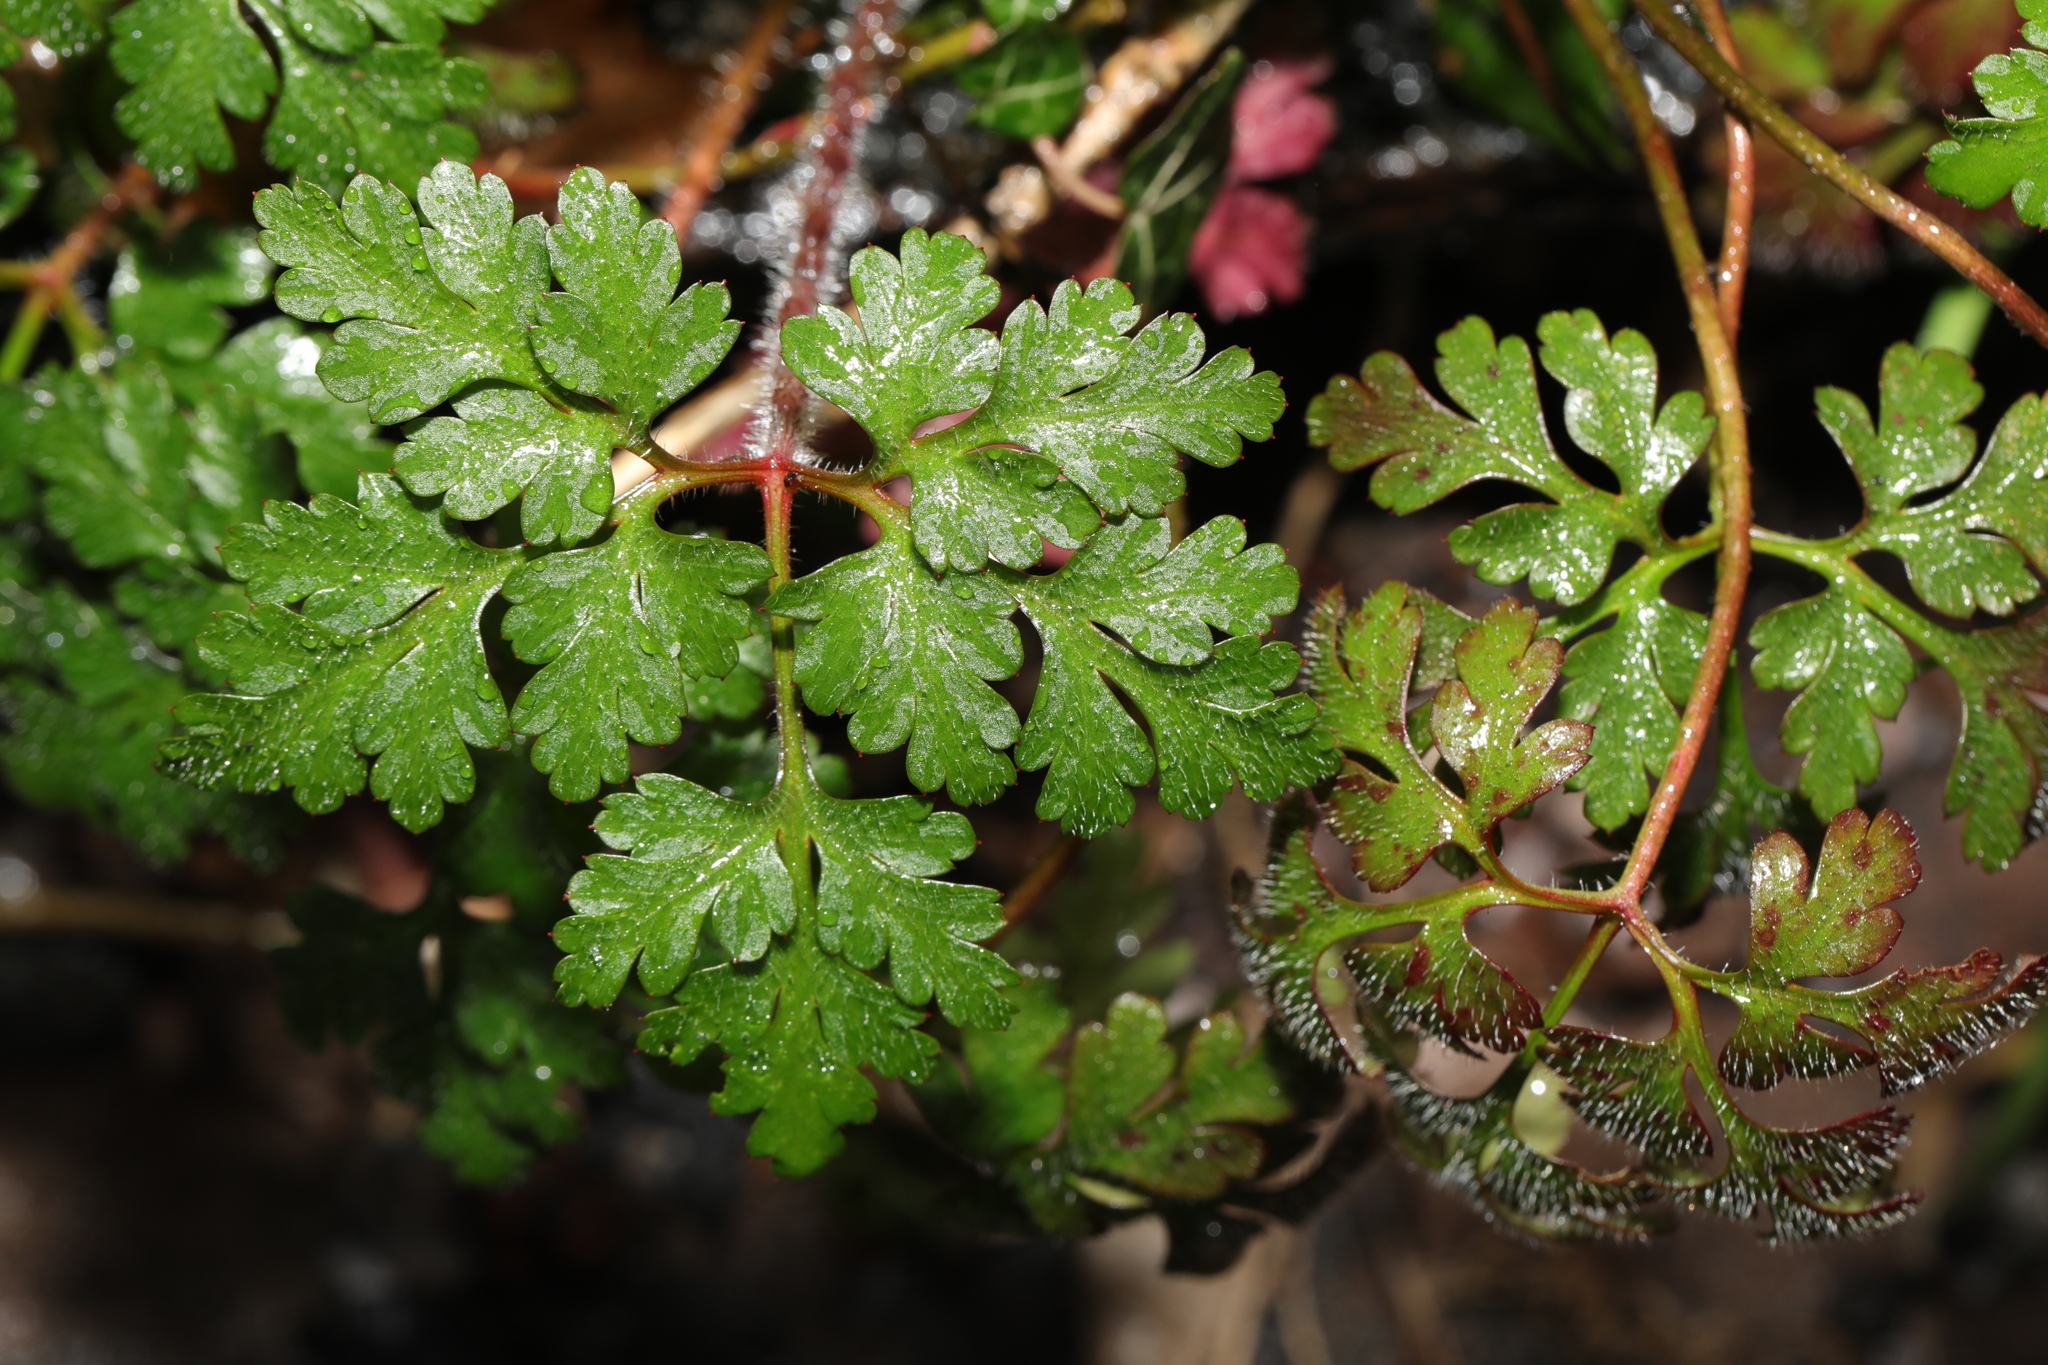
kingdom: Plantae
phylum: Tracheophyta
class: Magnoliopsida
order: Geraniales
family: Geraniaceae
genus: Geranium
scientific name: Geranium robertianum
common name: Herb-robert
